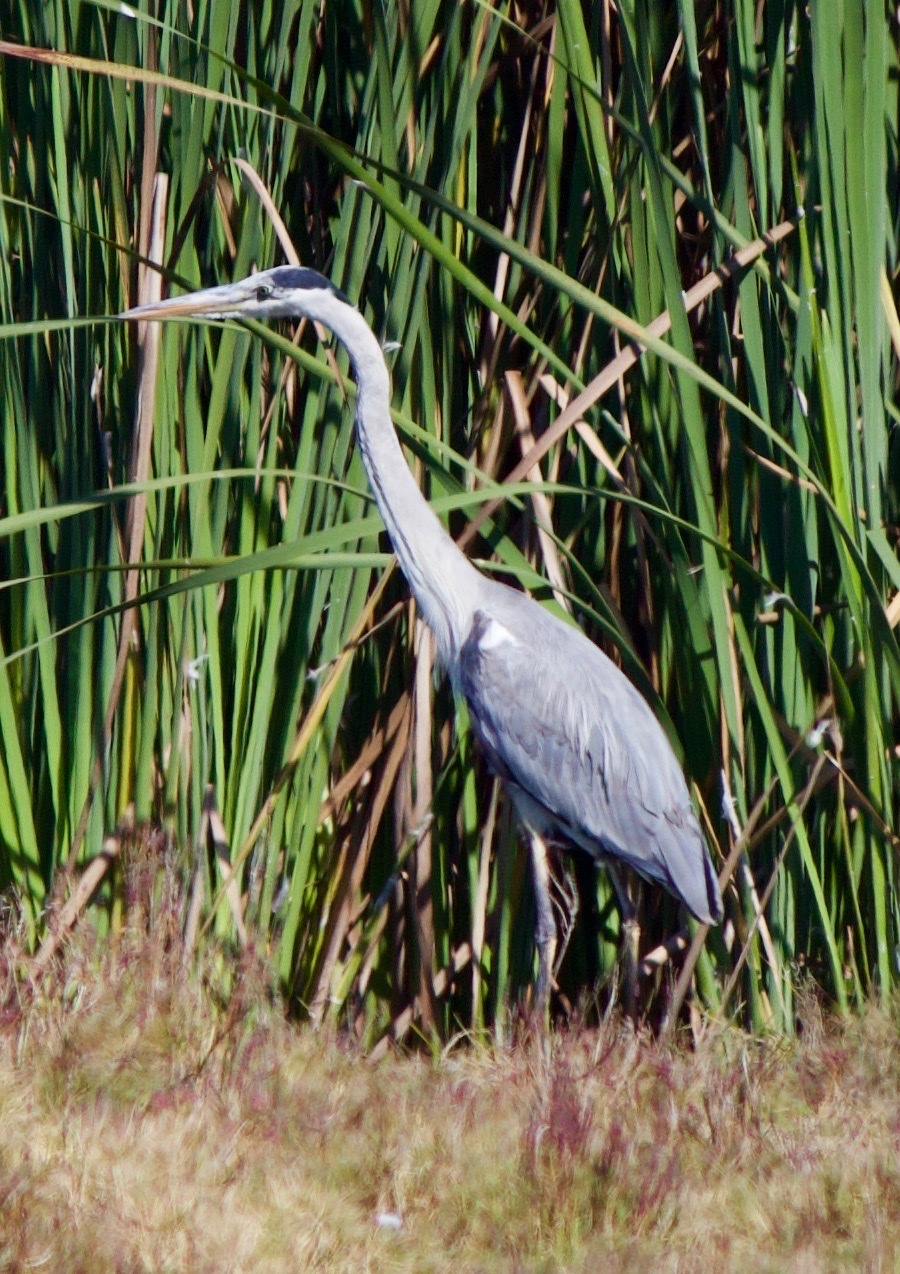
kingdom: Animalia
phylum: Chordata
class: Aves
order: Pelecaniformes
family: Ardeidae
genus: Ardea
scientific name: Ardea cocoi
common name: Cocoi heron
